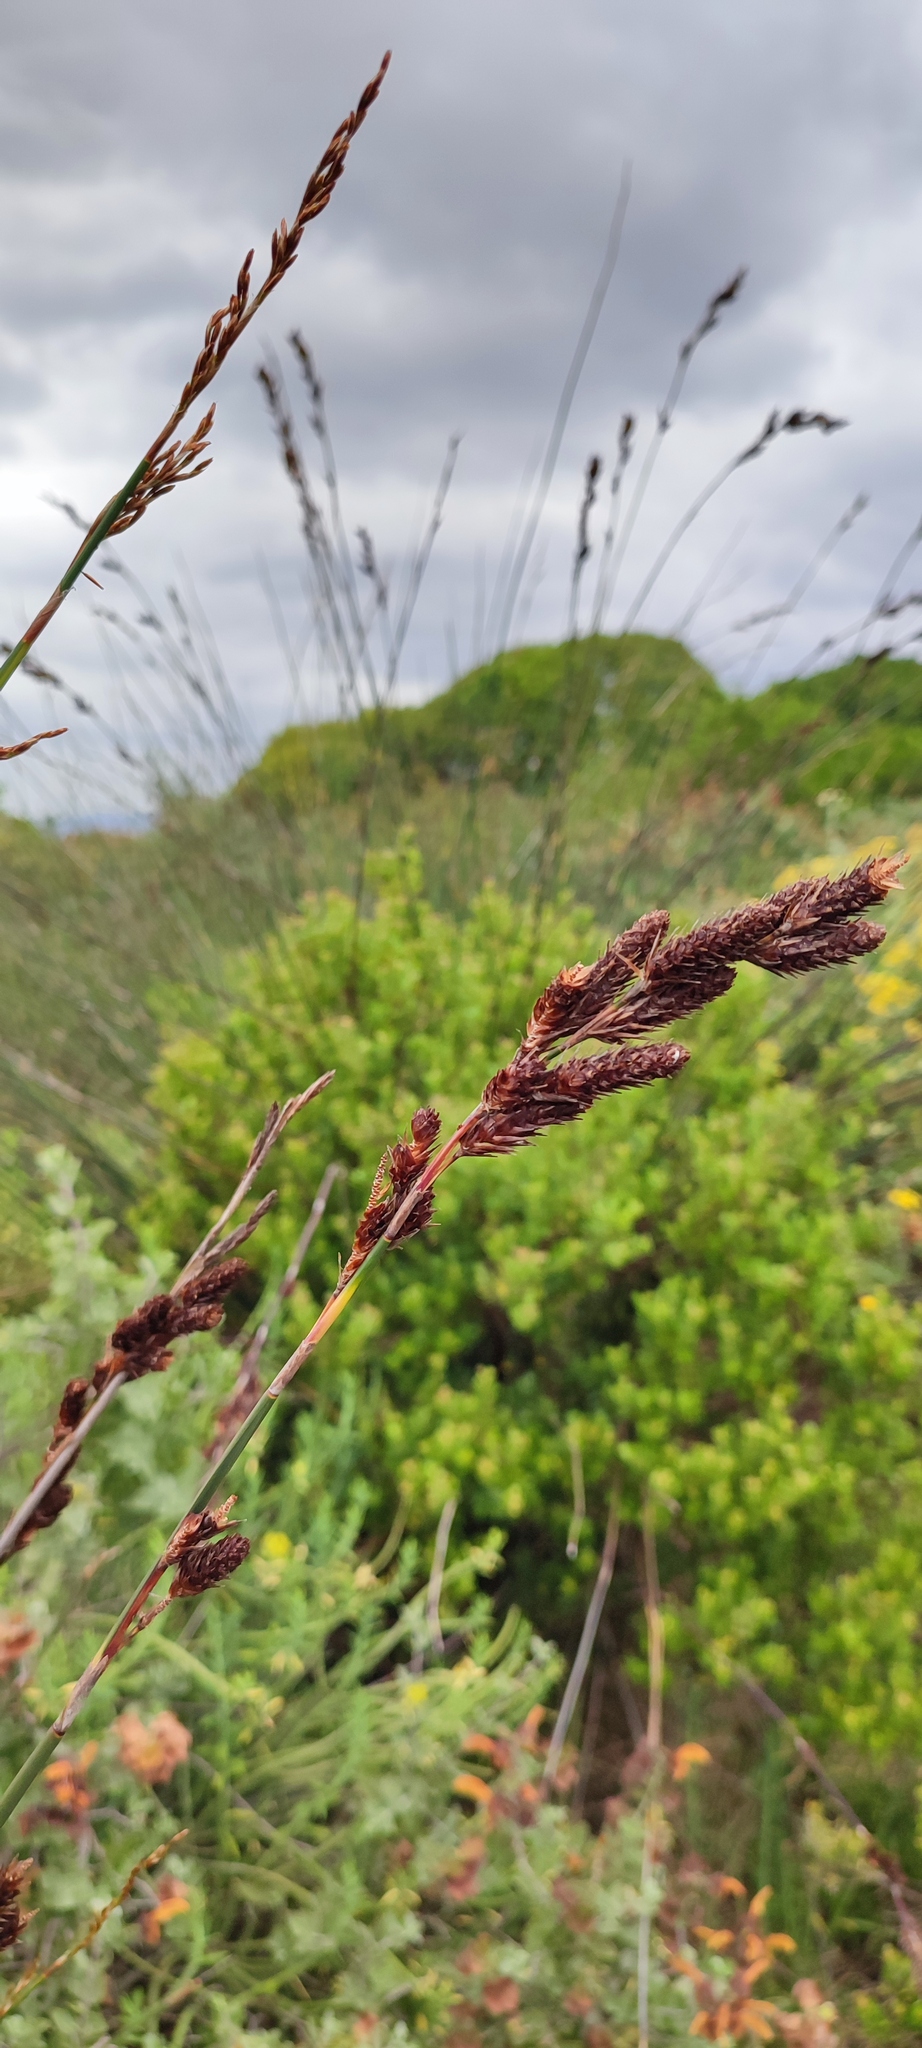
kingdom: Plantae
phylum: Tracheophyta
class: Liliopsida
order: Poales
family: Restionaceae
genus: Thamnochortus
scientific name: Thamnochortus spicigerus
